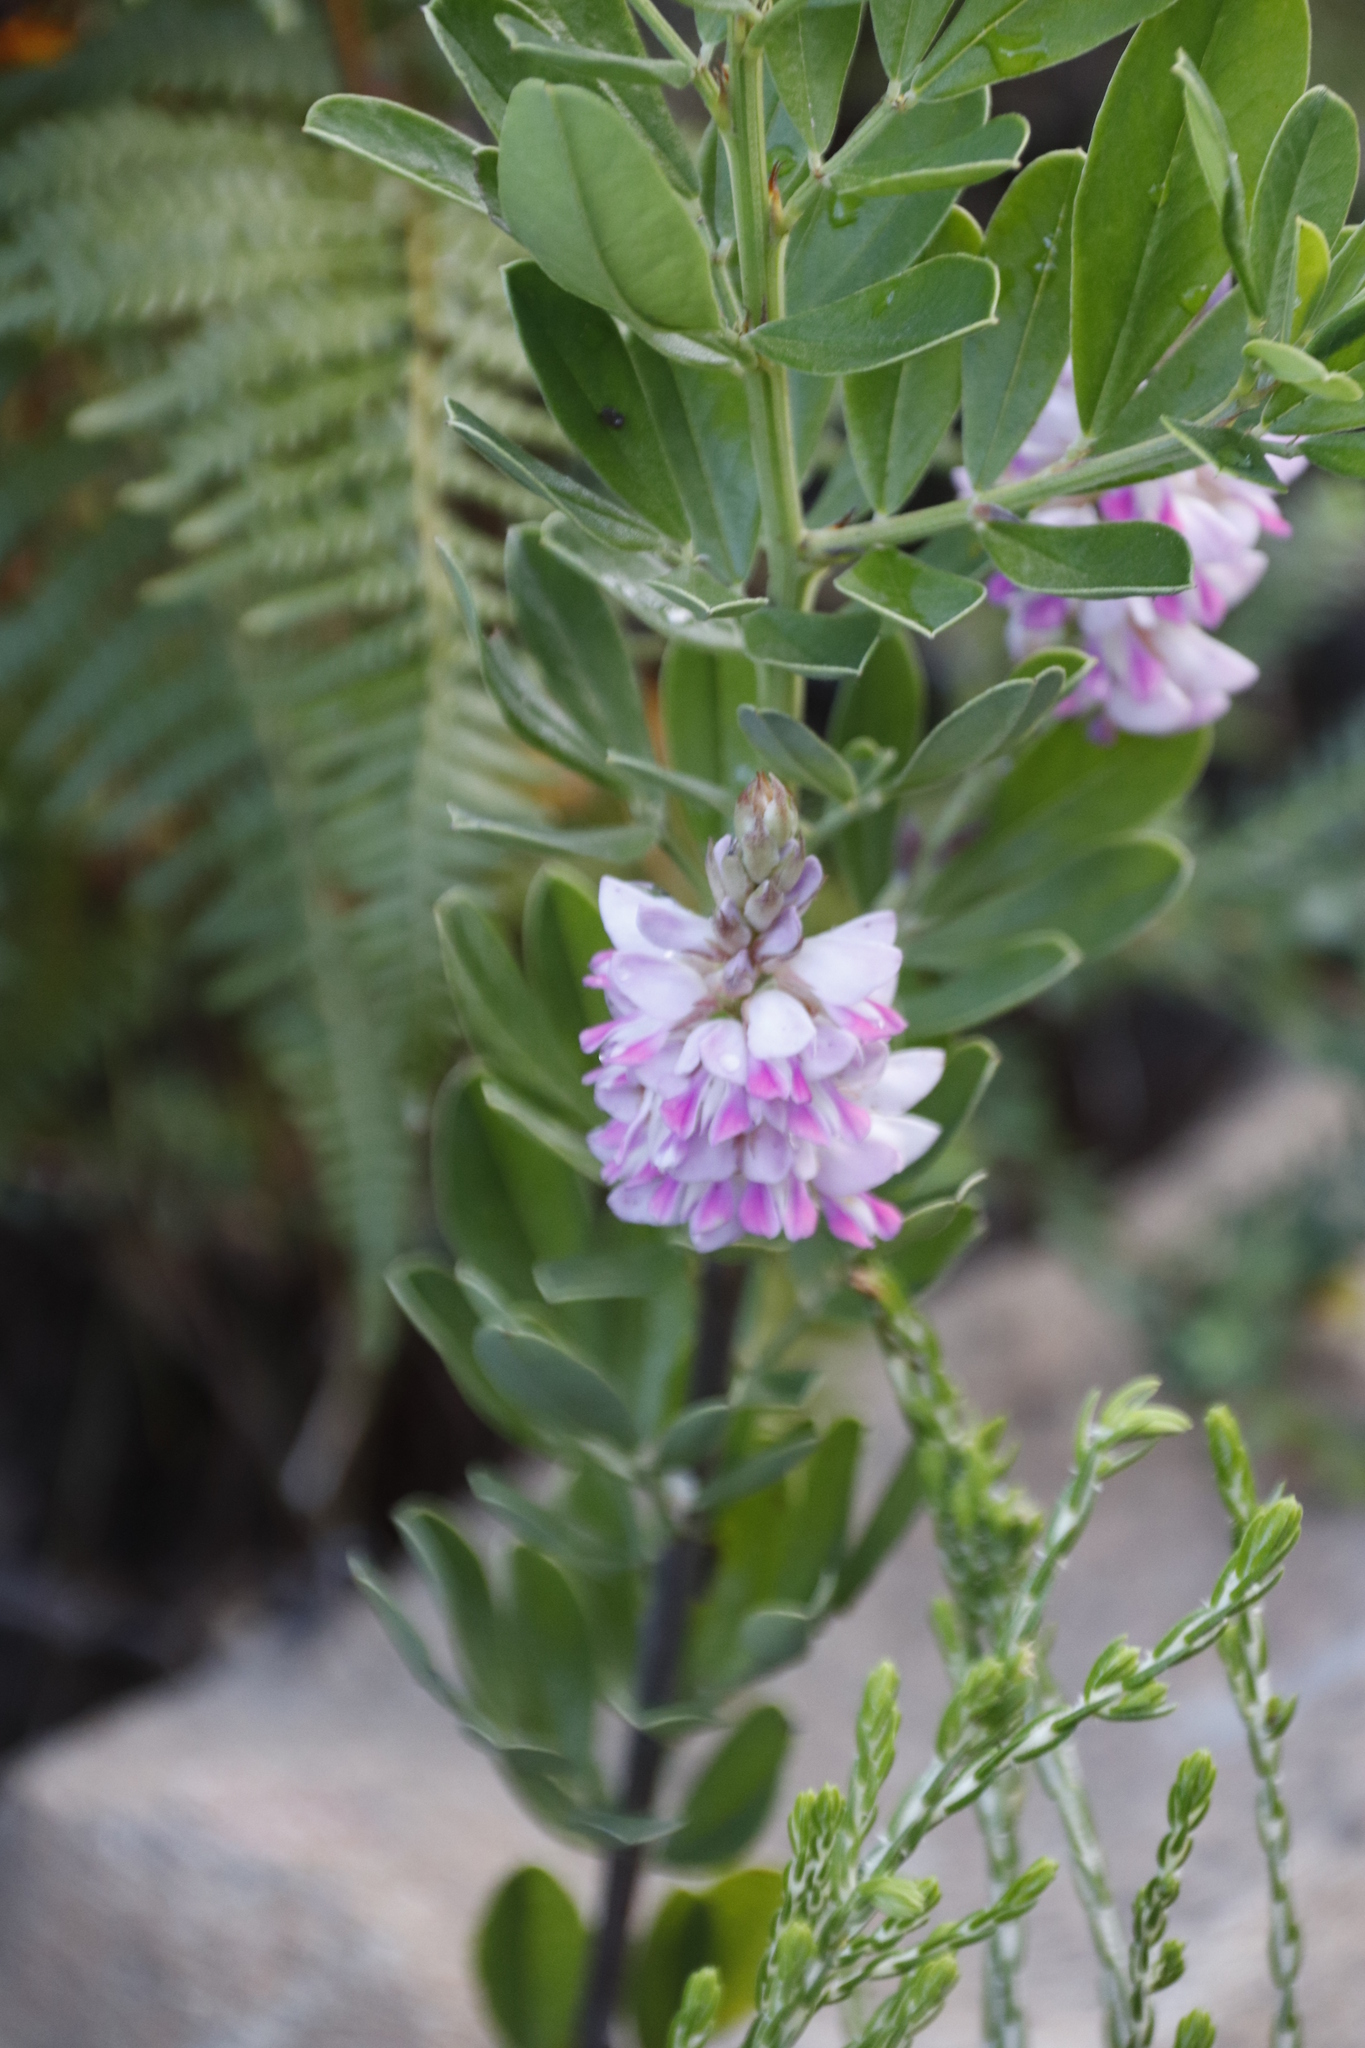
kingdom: Plantae
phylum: Tracheophyta
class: Magnoliopsida
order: Fabales
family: Fabaceae
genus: Indigofera
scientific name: Indigofera cytisoides
